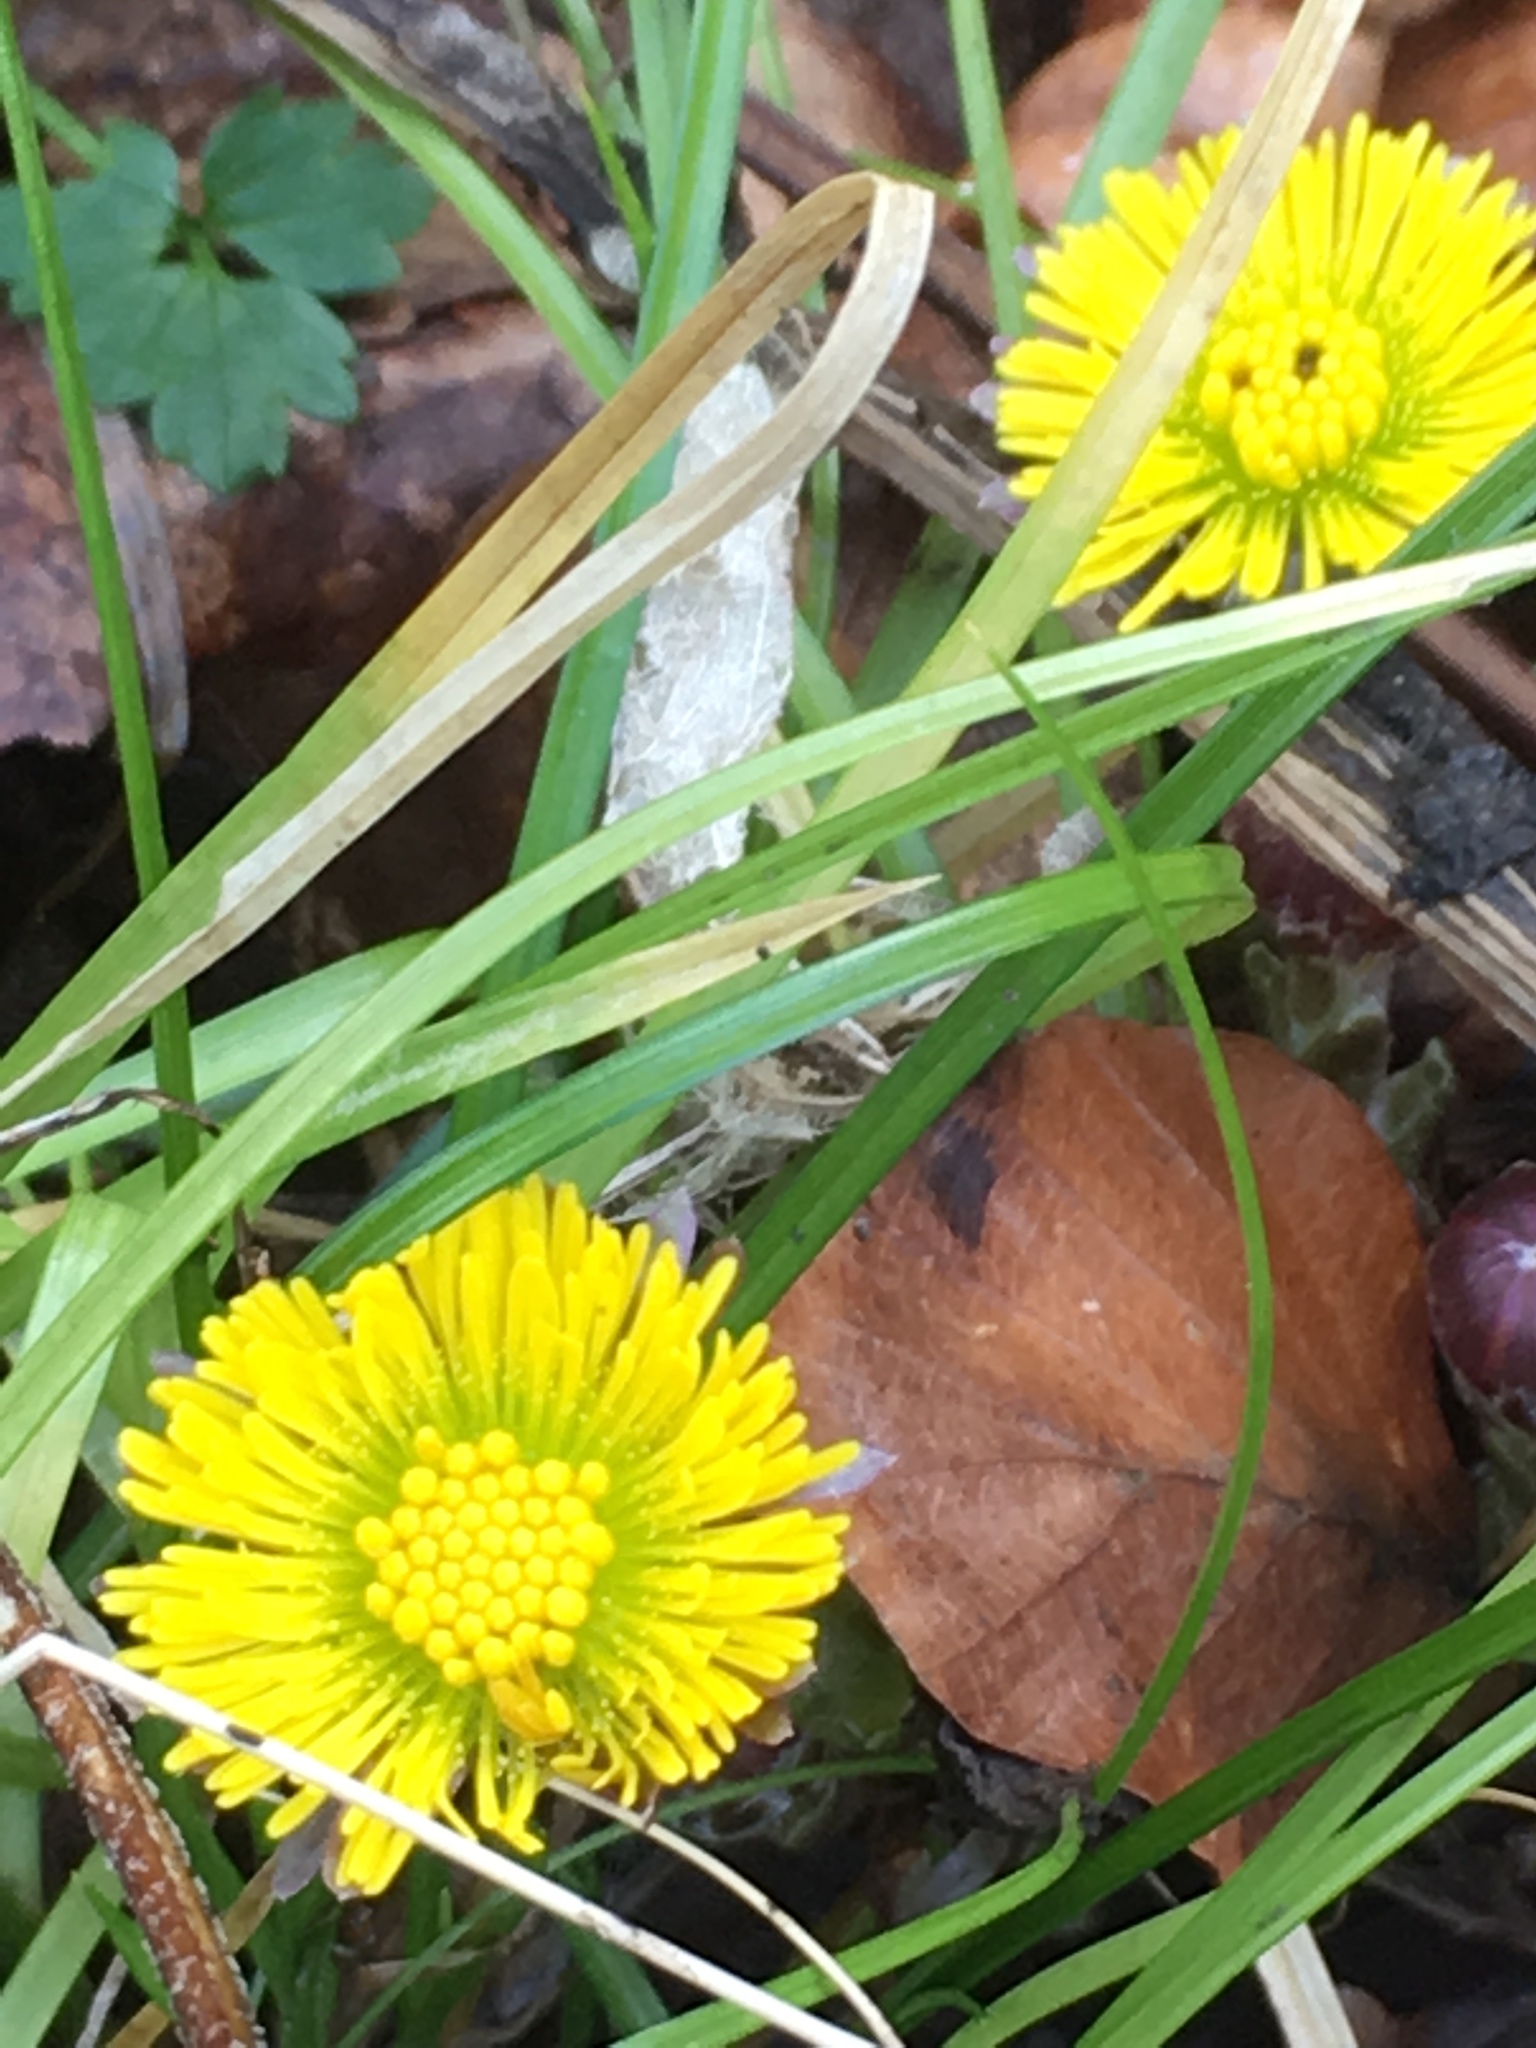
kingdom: Plantae
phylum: Tracheophyta
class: Magnoliopsida
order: Asterales
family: Asteraceae
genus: Tussilago
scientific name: Tussilago farfara
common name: Coltsfoot
